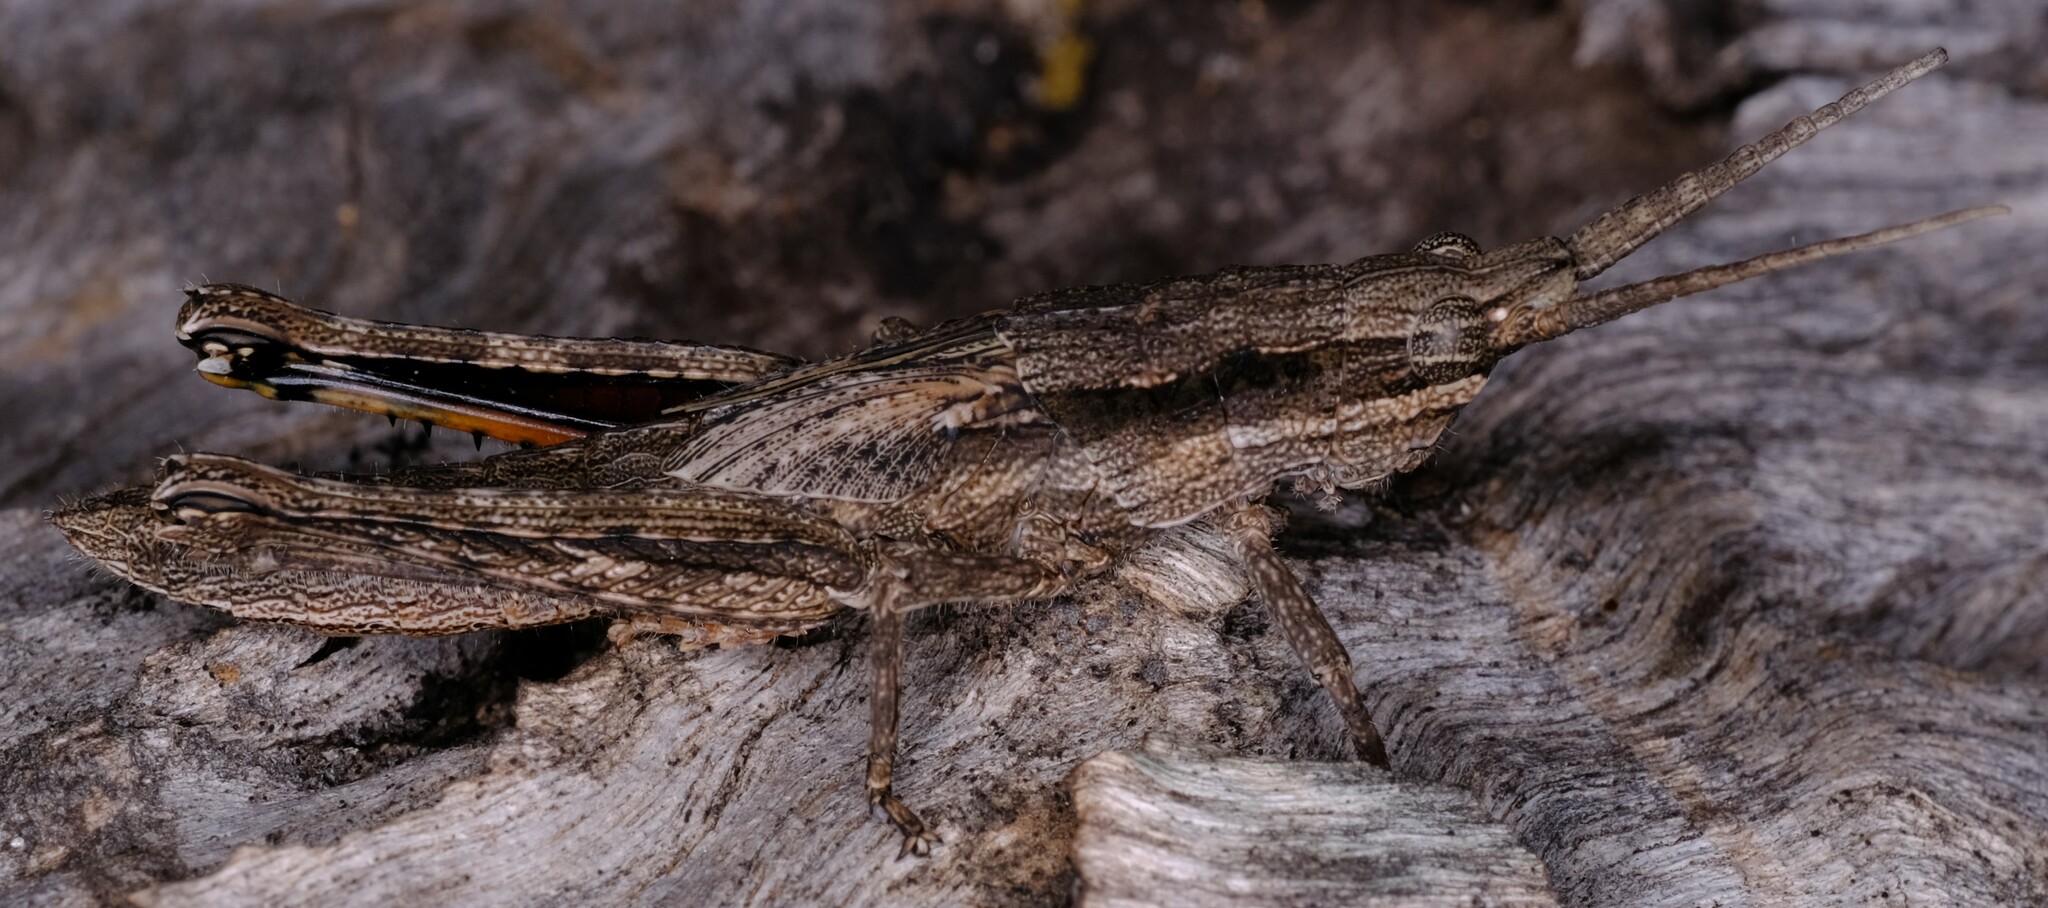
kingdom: Animalia
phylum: Arthropoda
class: Insecta
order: Orthoptera
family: Acrididae
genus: Coryphistes
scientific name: Coryphistes ruricola
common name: Bark-mimicking grasshopper
